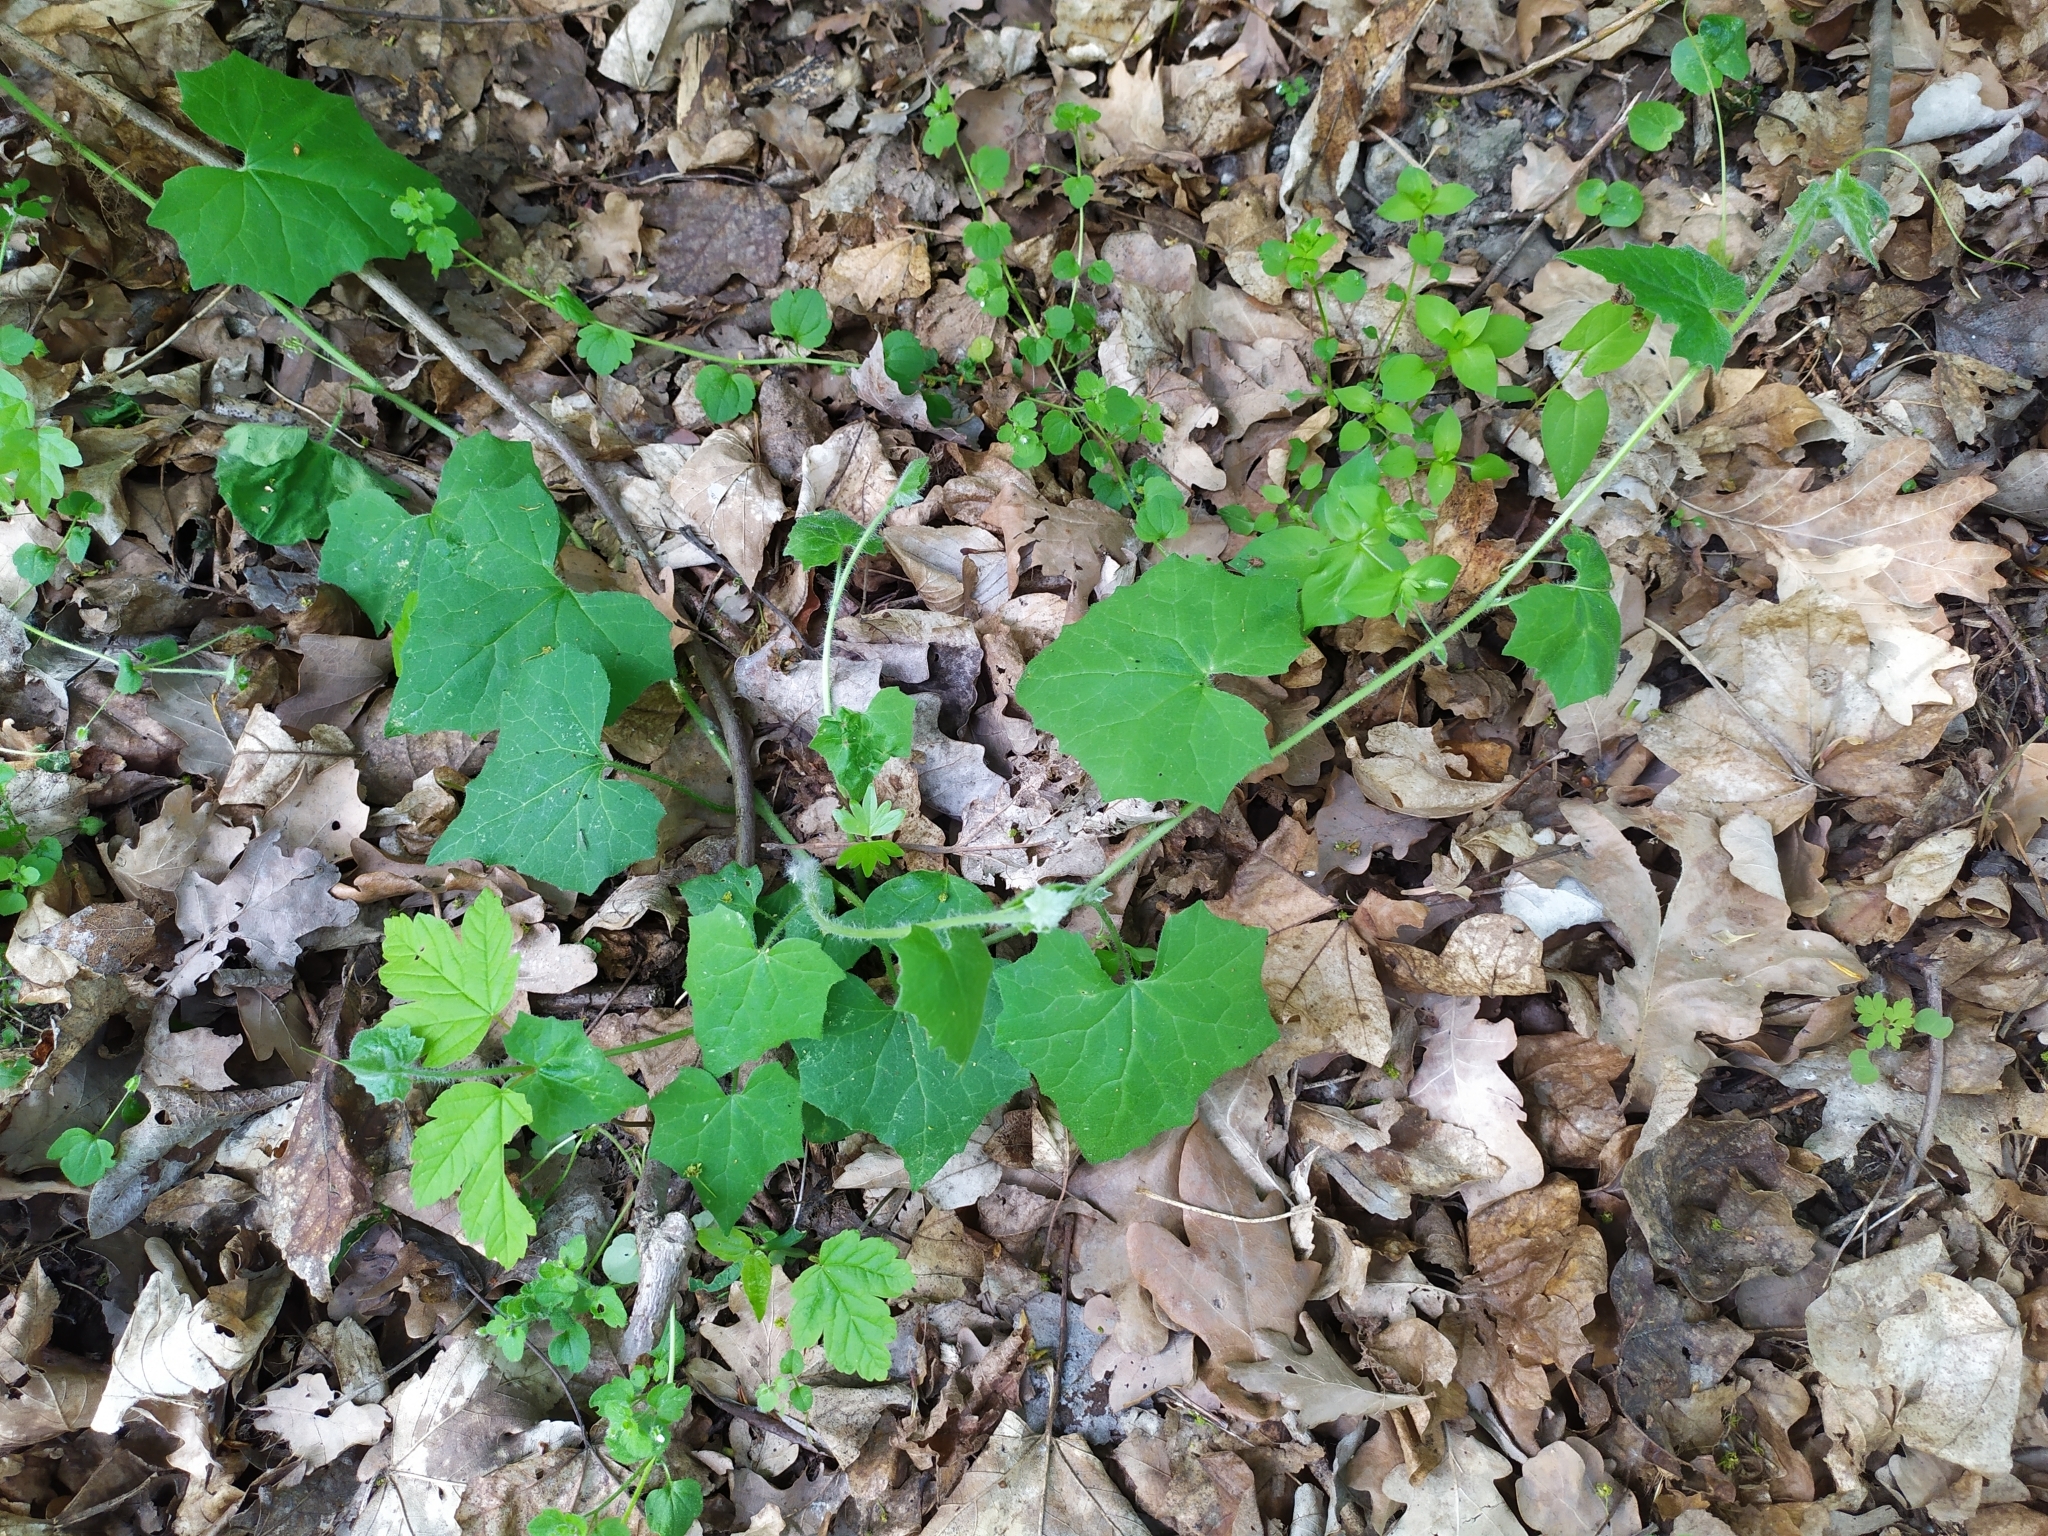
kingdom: Plantae
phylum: Tracheophyta
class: Magnoliopsida
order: Cucurbitales
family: Cucurbitaceae
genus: Bryonia
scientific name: Bryonia dioica
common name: White bryony
